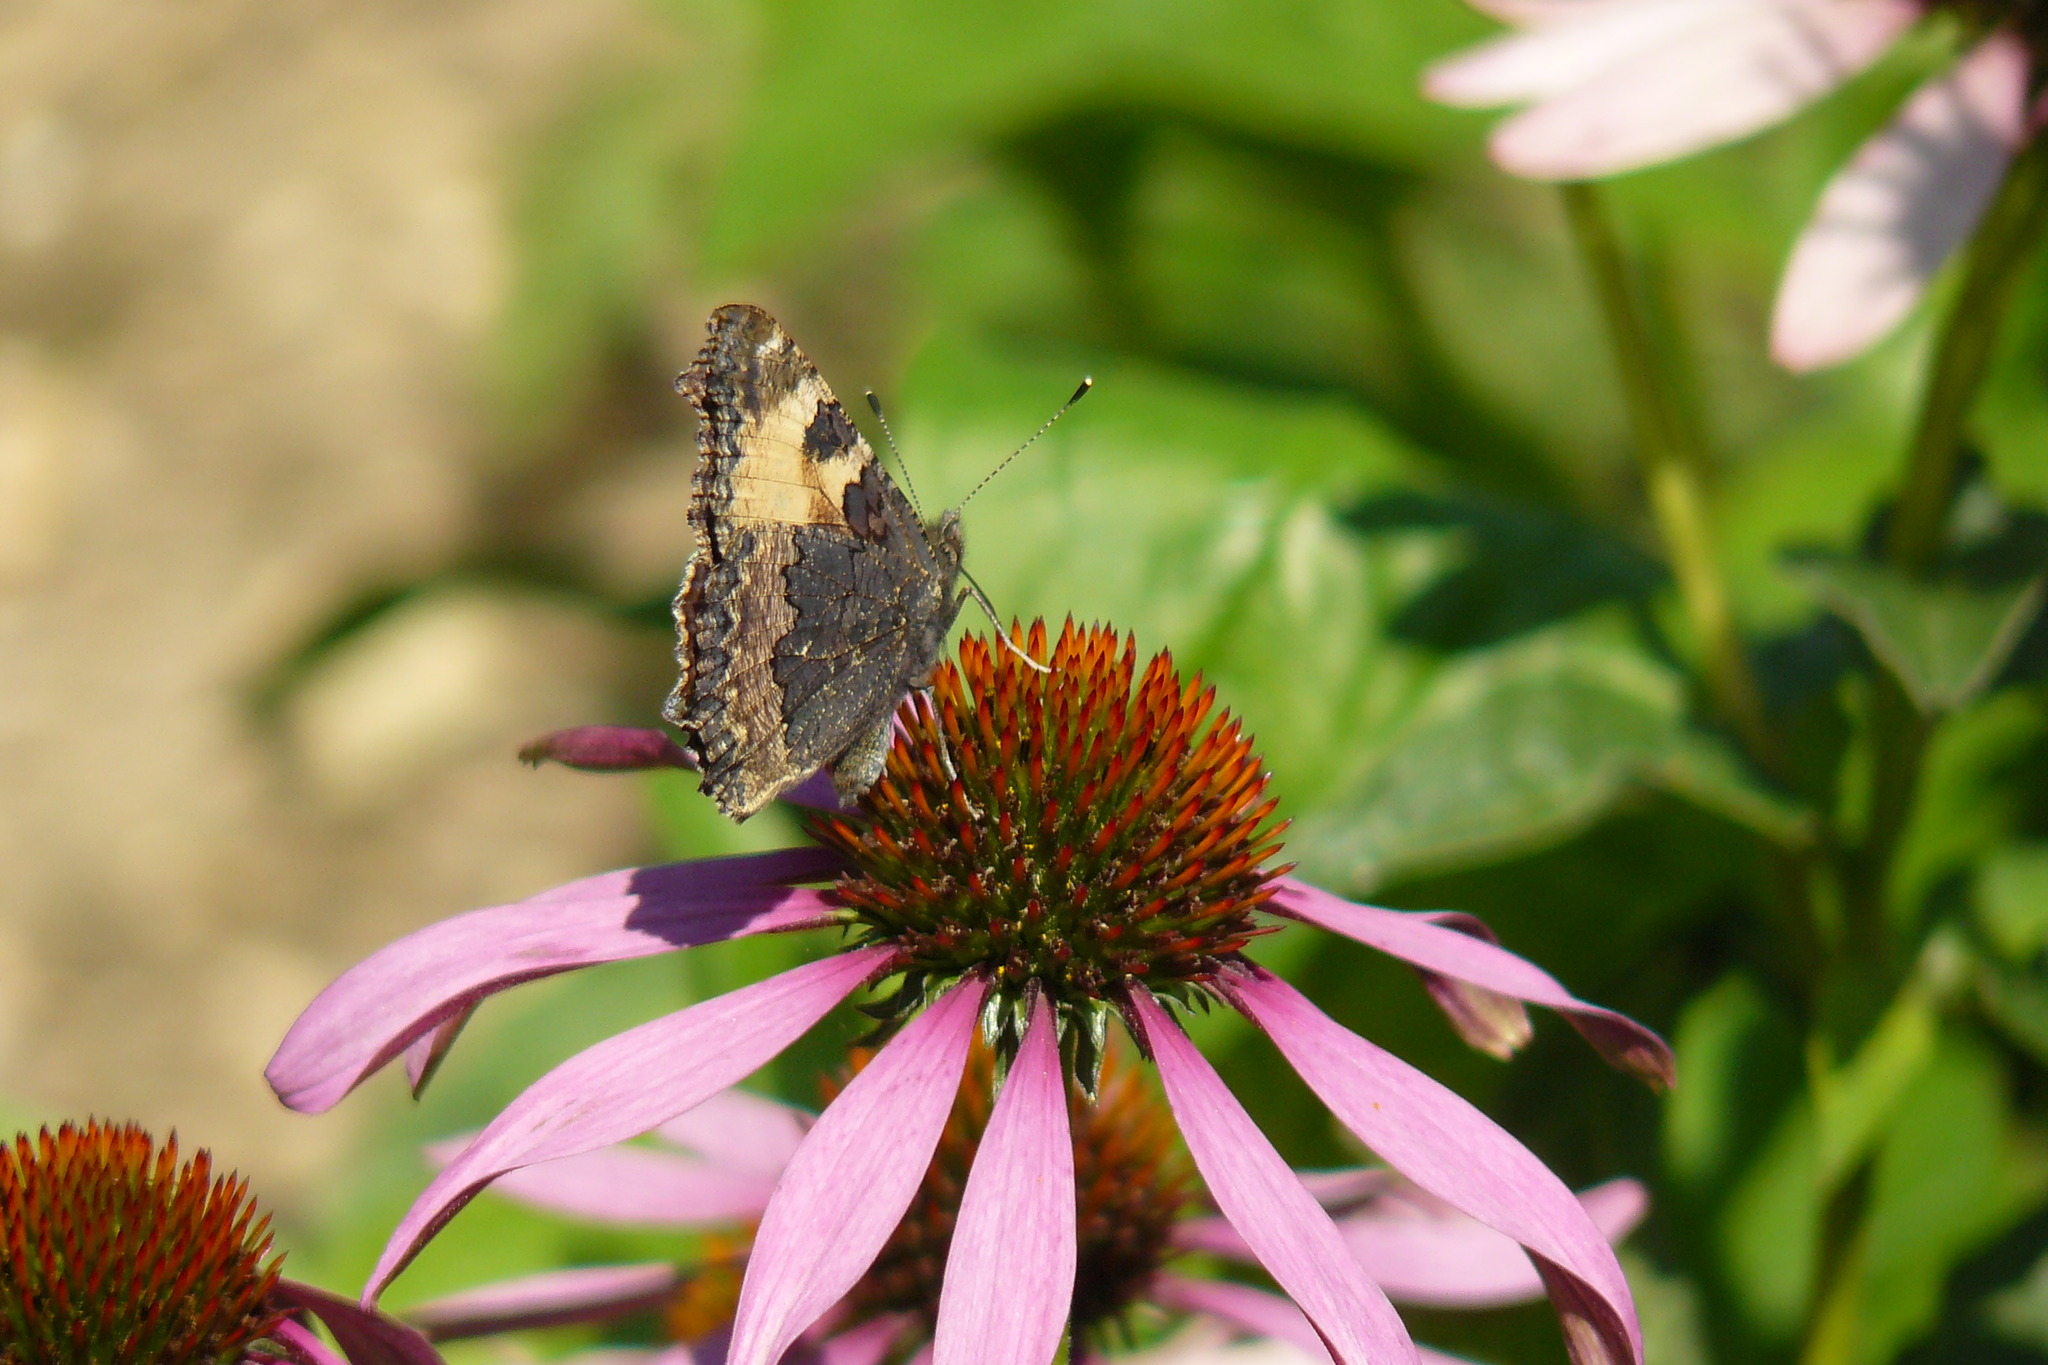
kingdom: Animalia
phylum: Arthropoda
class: Insecta
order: Lepidoptera
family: Nymphalidae
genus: Aglais
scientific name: Aglais urticae
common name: Small tortoiseshell
